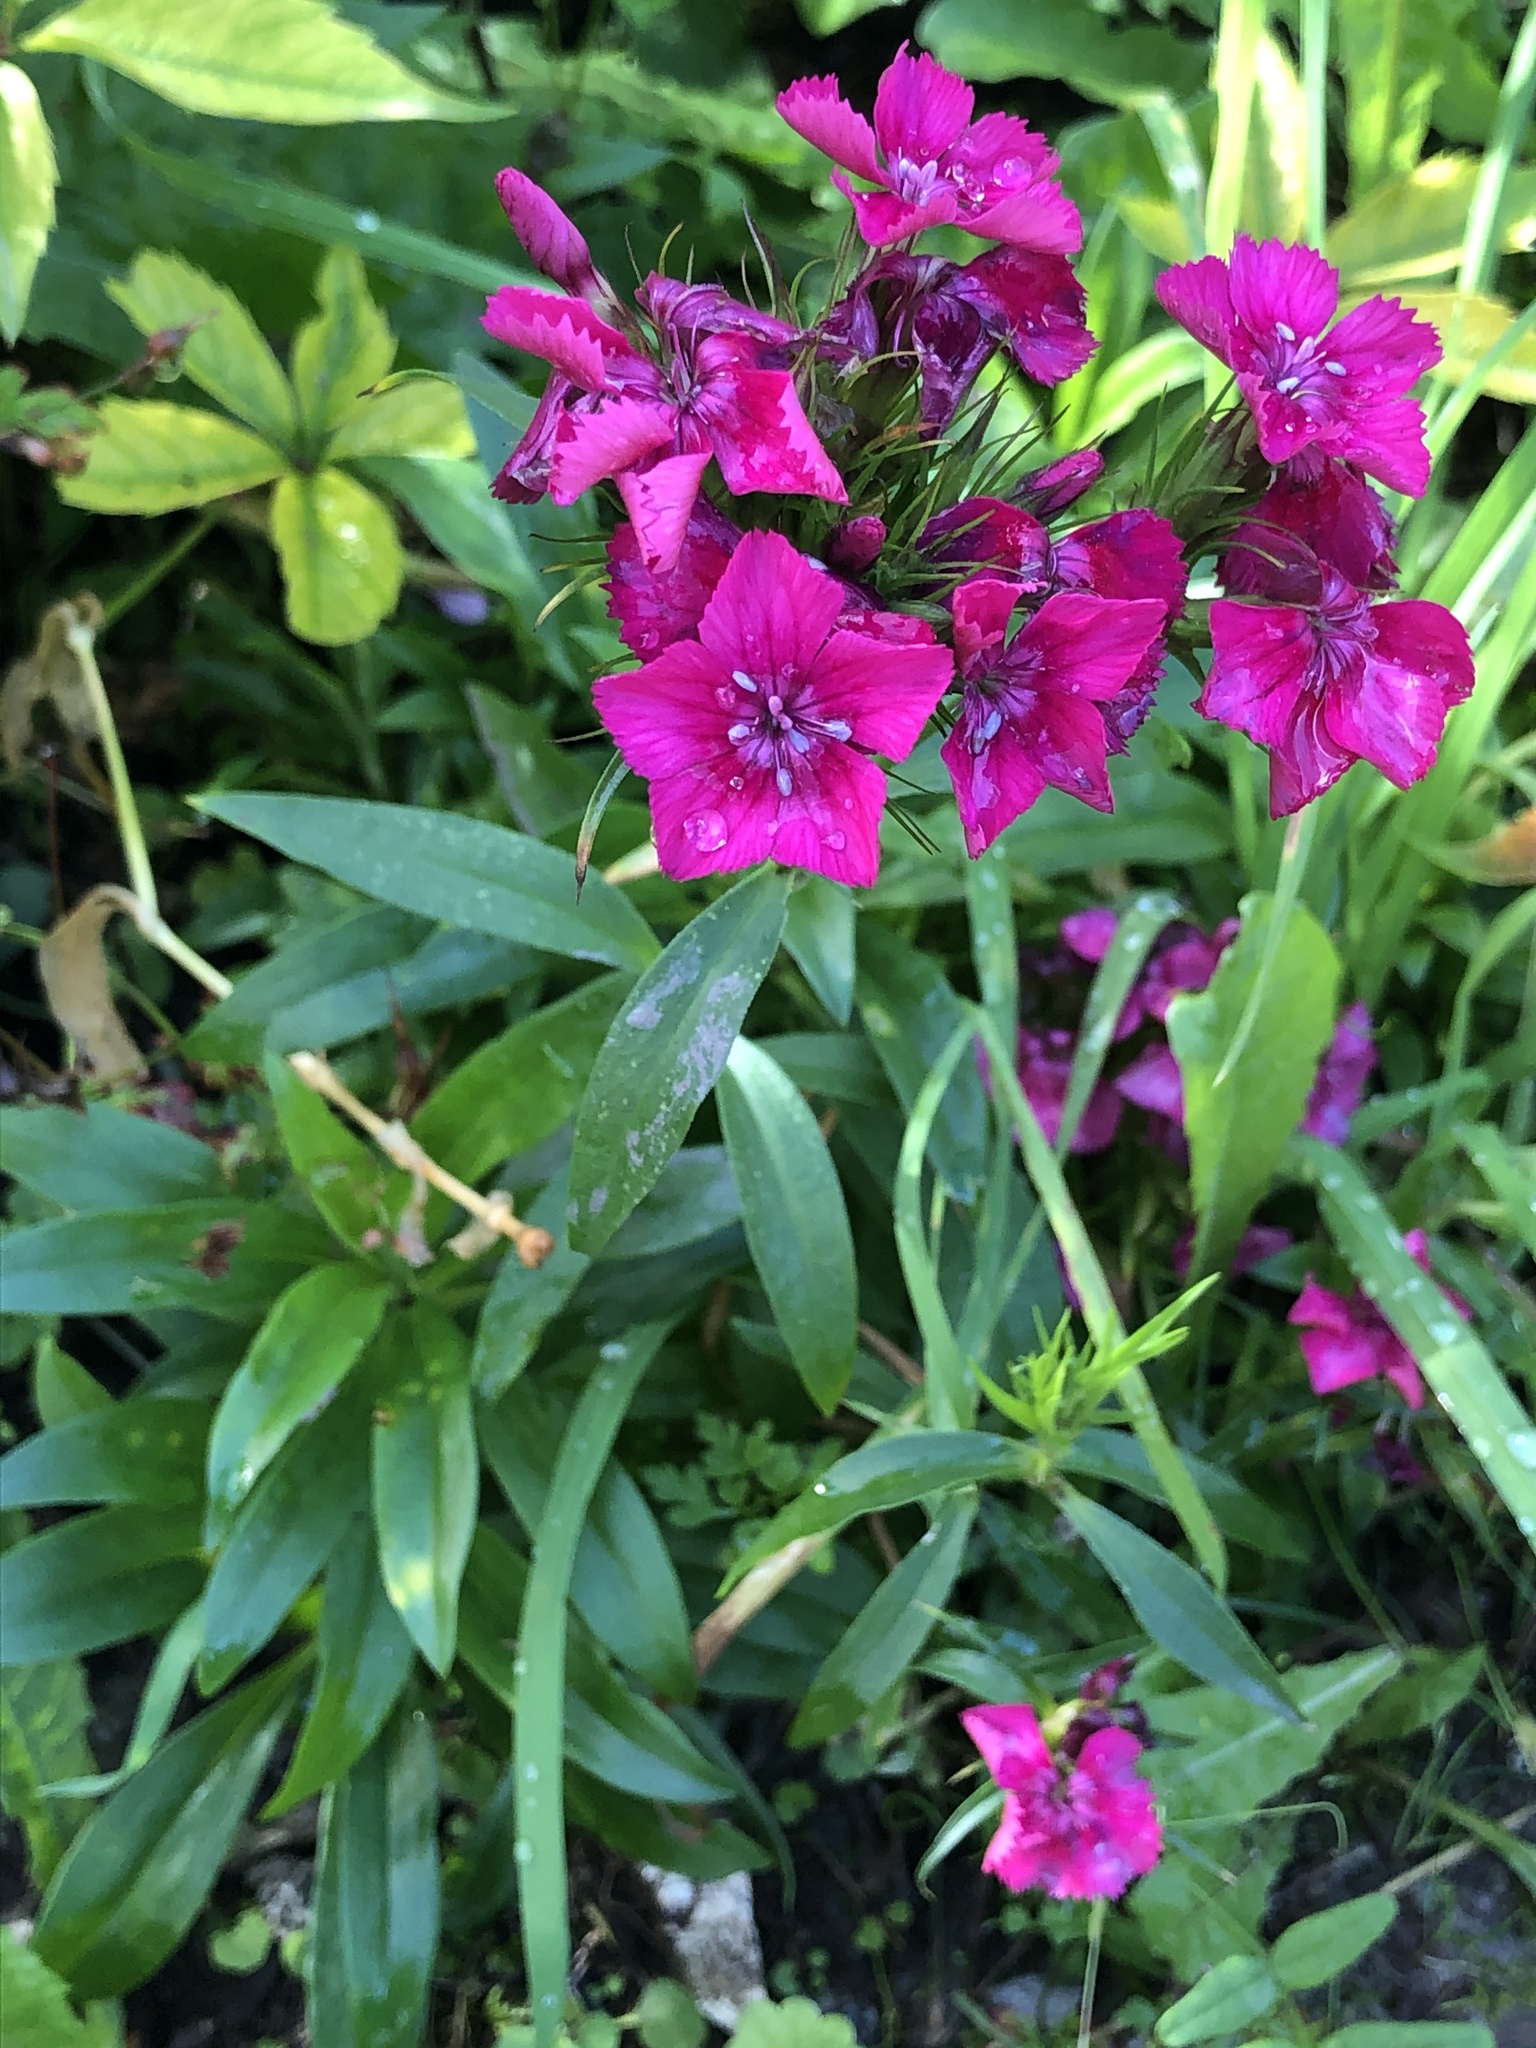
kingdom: Plantae
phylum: Tracheophyta
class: Magnoliopsida
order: Caryophyllales
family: Caryophyllaceae
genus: Dianthus
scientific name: Dianthus barbatus
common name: Sweet-william
